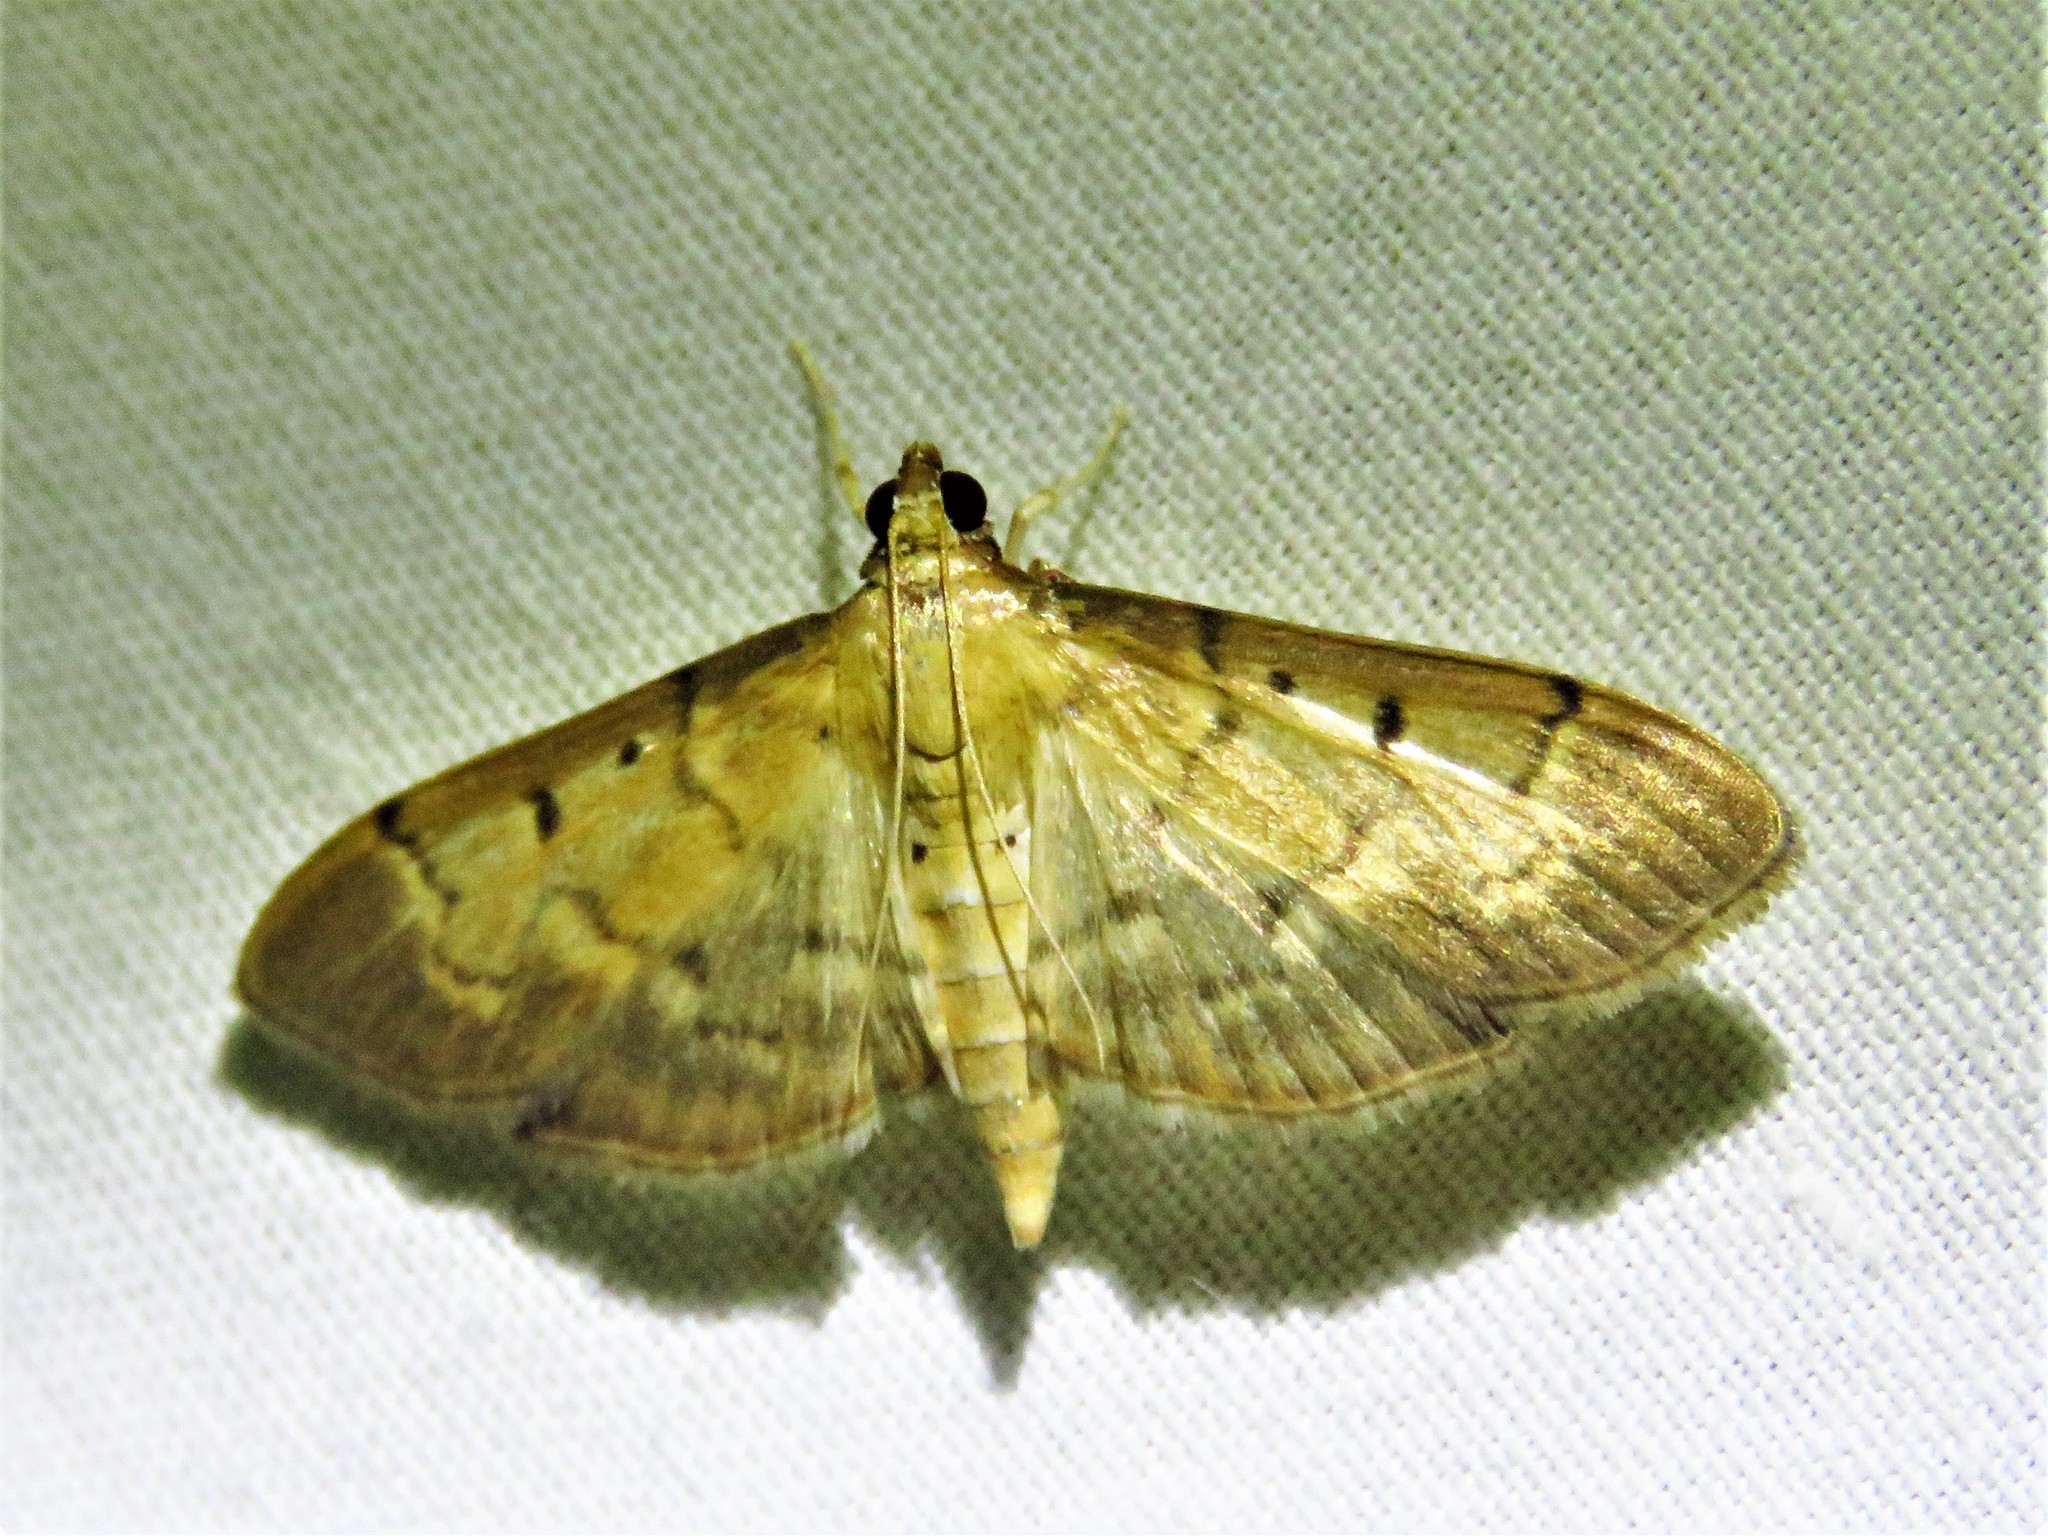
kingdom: Animalia
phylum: Arthropoda
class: Insecta
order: Lepidoptera
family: Crambidae
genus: Herpetogramma
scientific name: Herpetogramma bipunctalis
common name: Southern beet webworm
